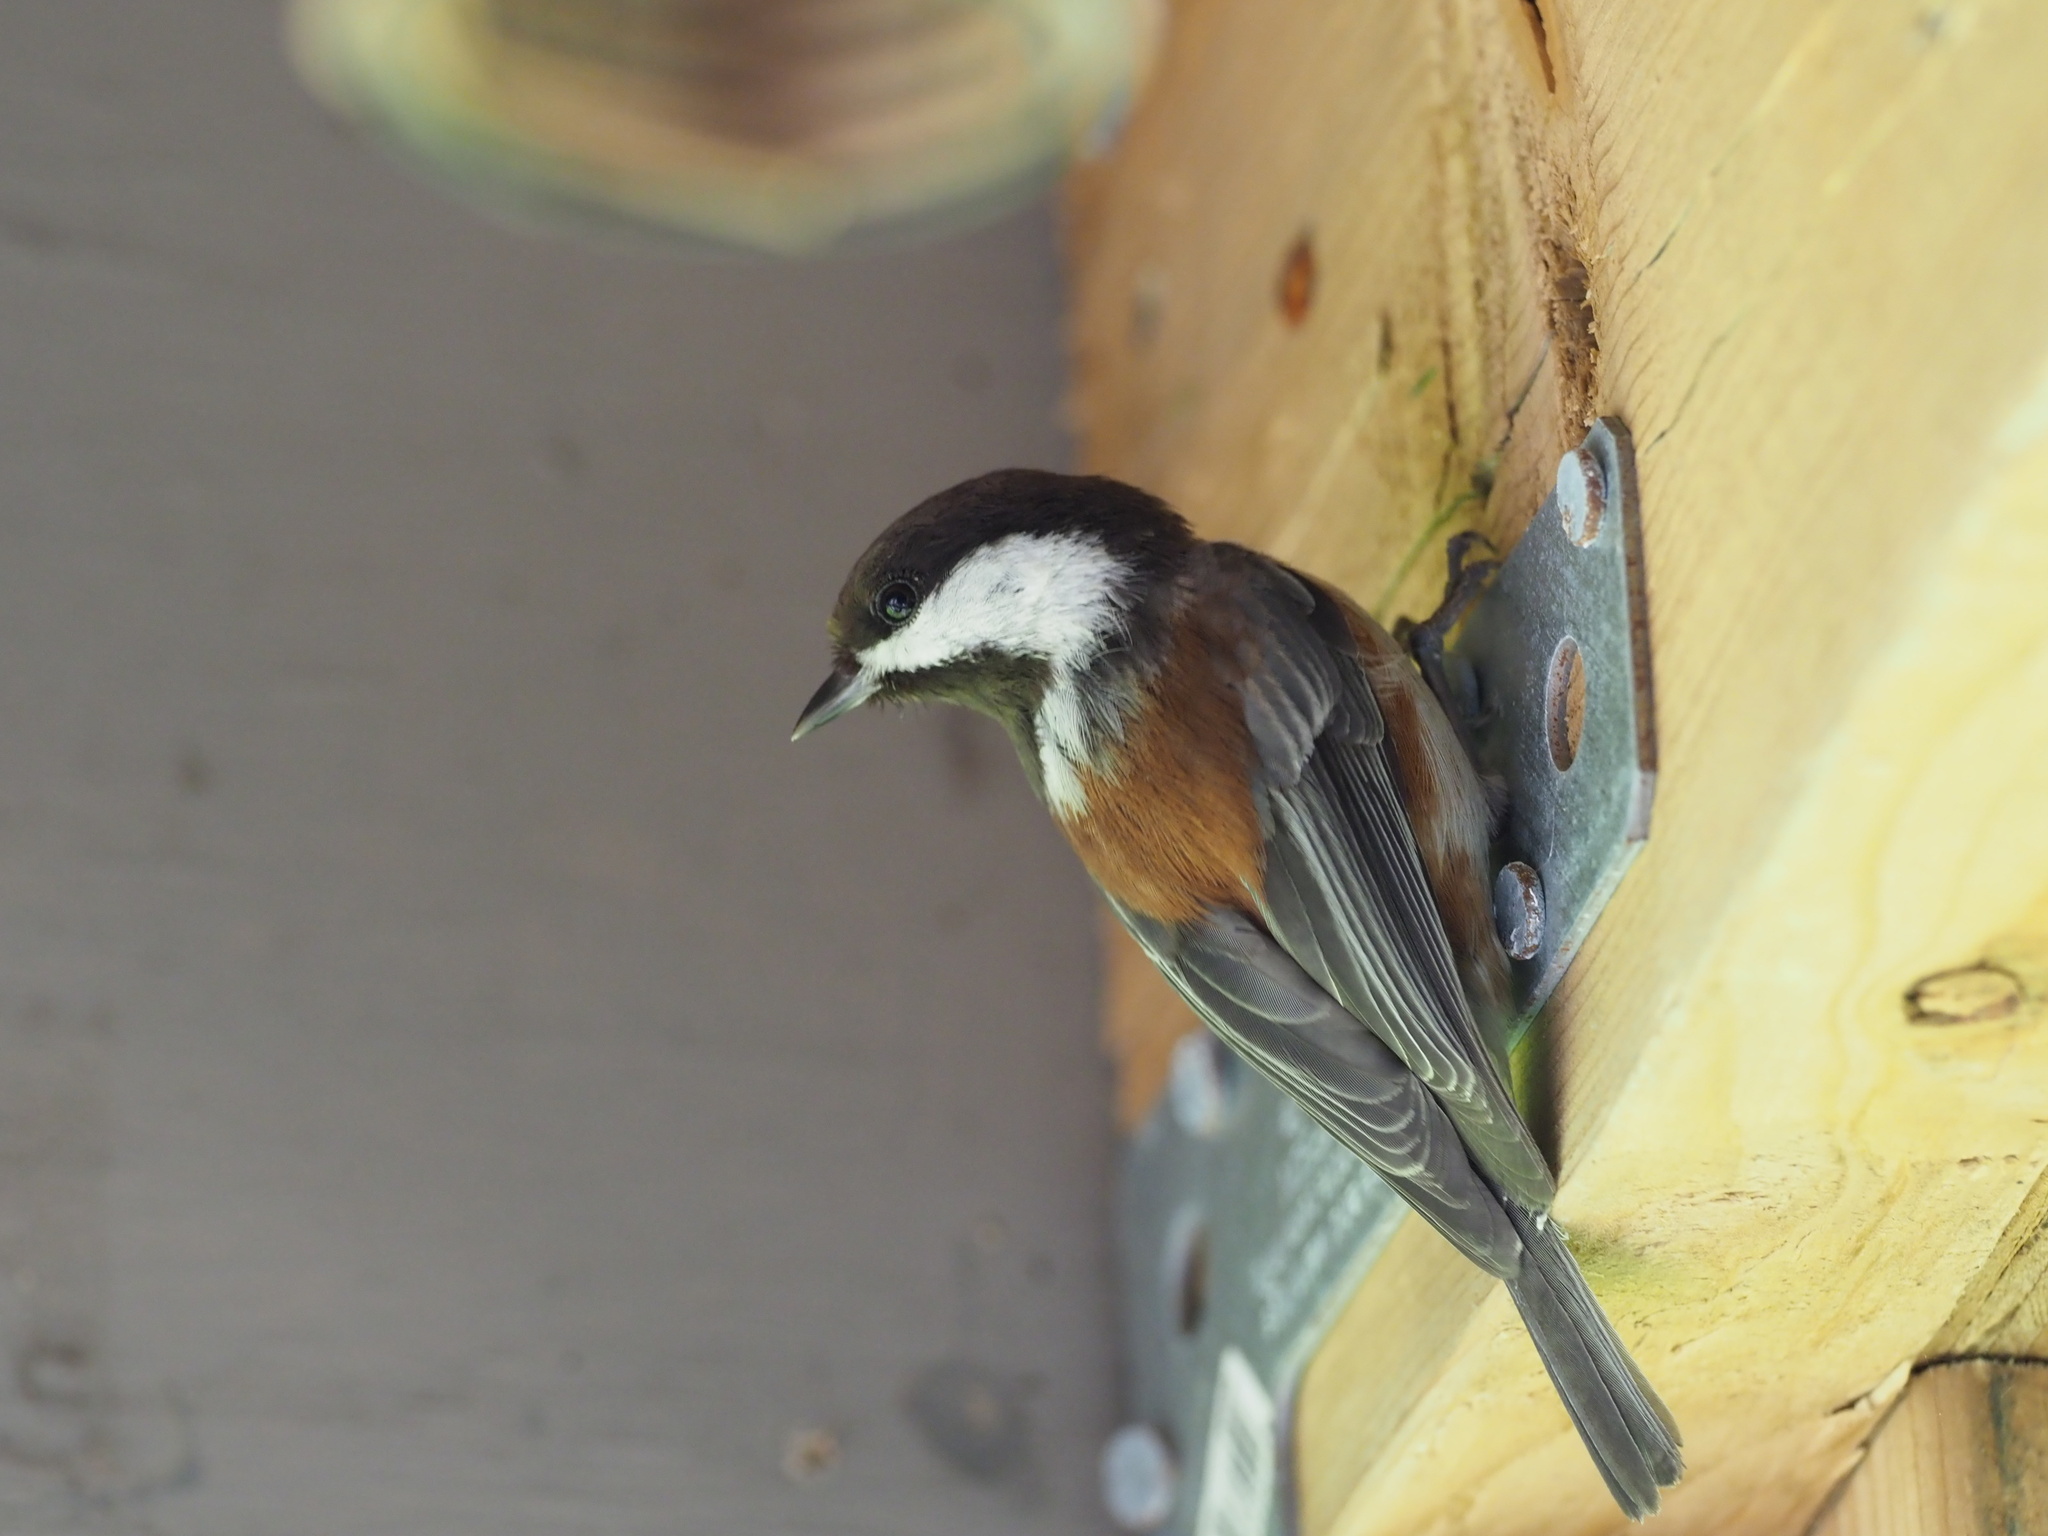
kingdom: Animalia
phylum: Chordata
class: Aves
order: Passeriformes
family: Paridae
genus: Poecile
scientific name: Poecile rufescens
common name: Chestnut-backed chickadee
